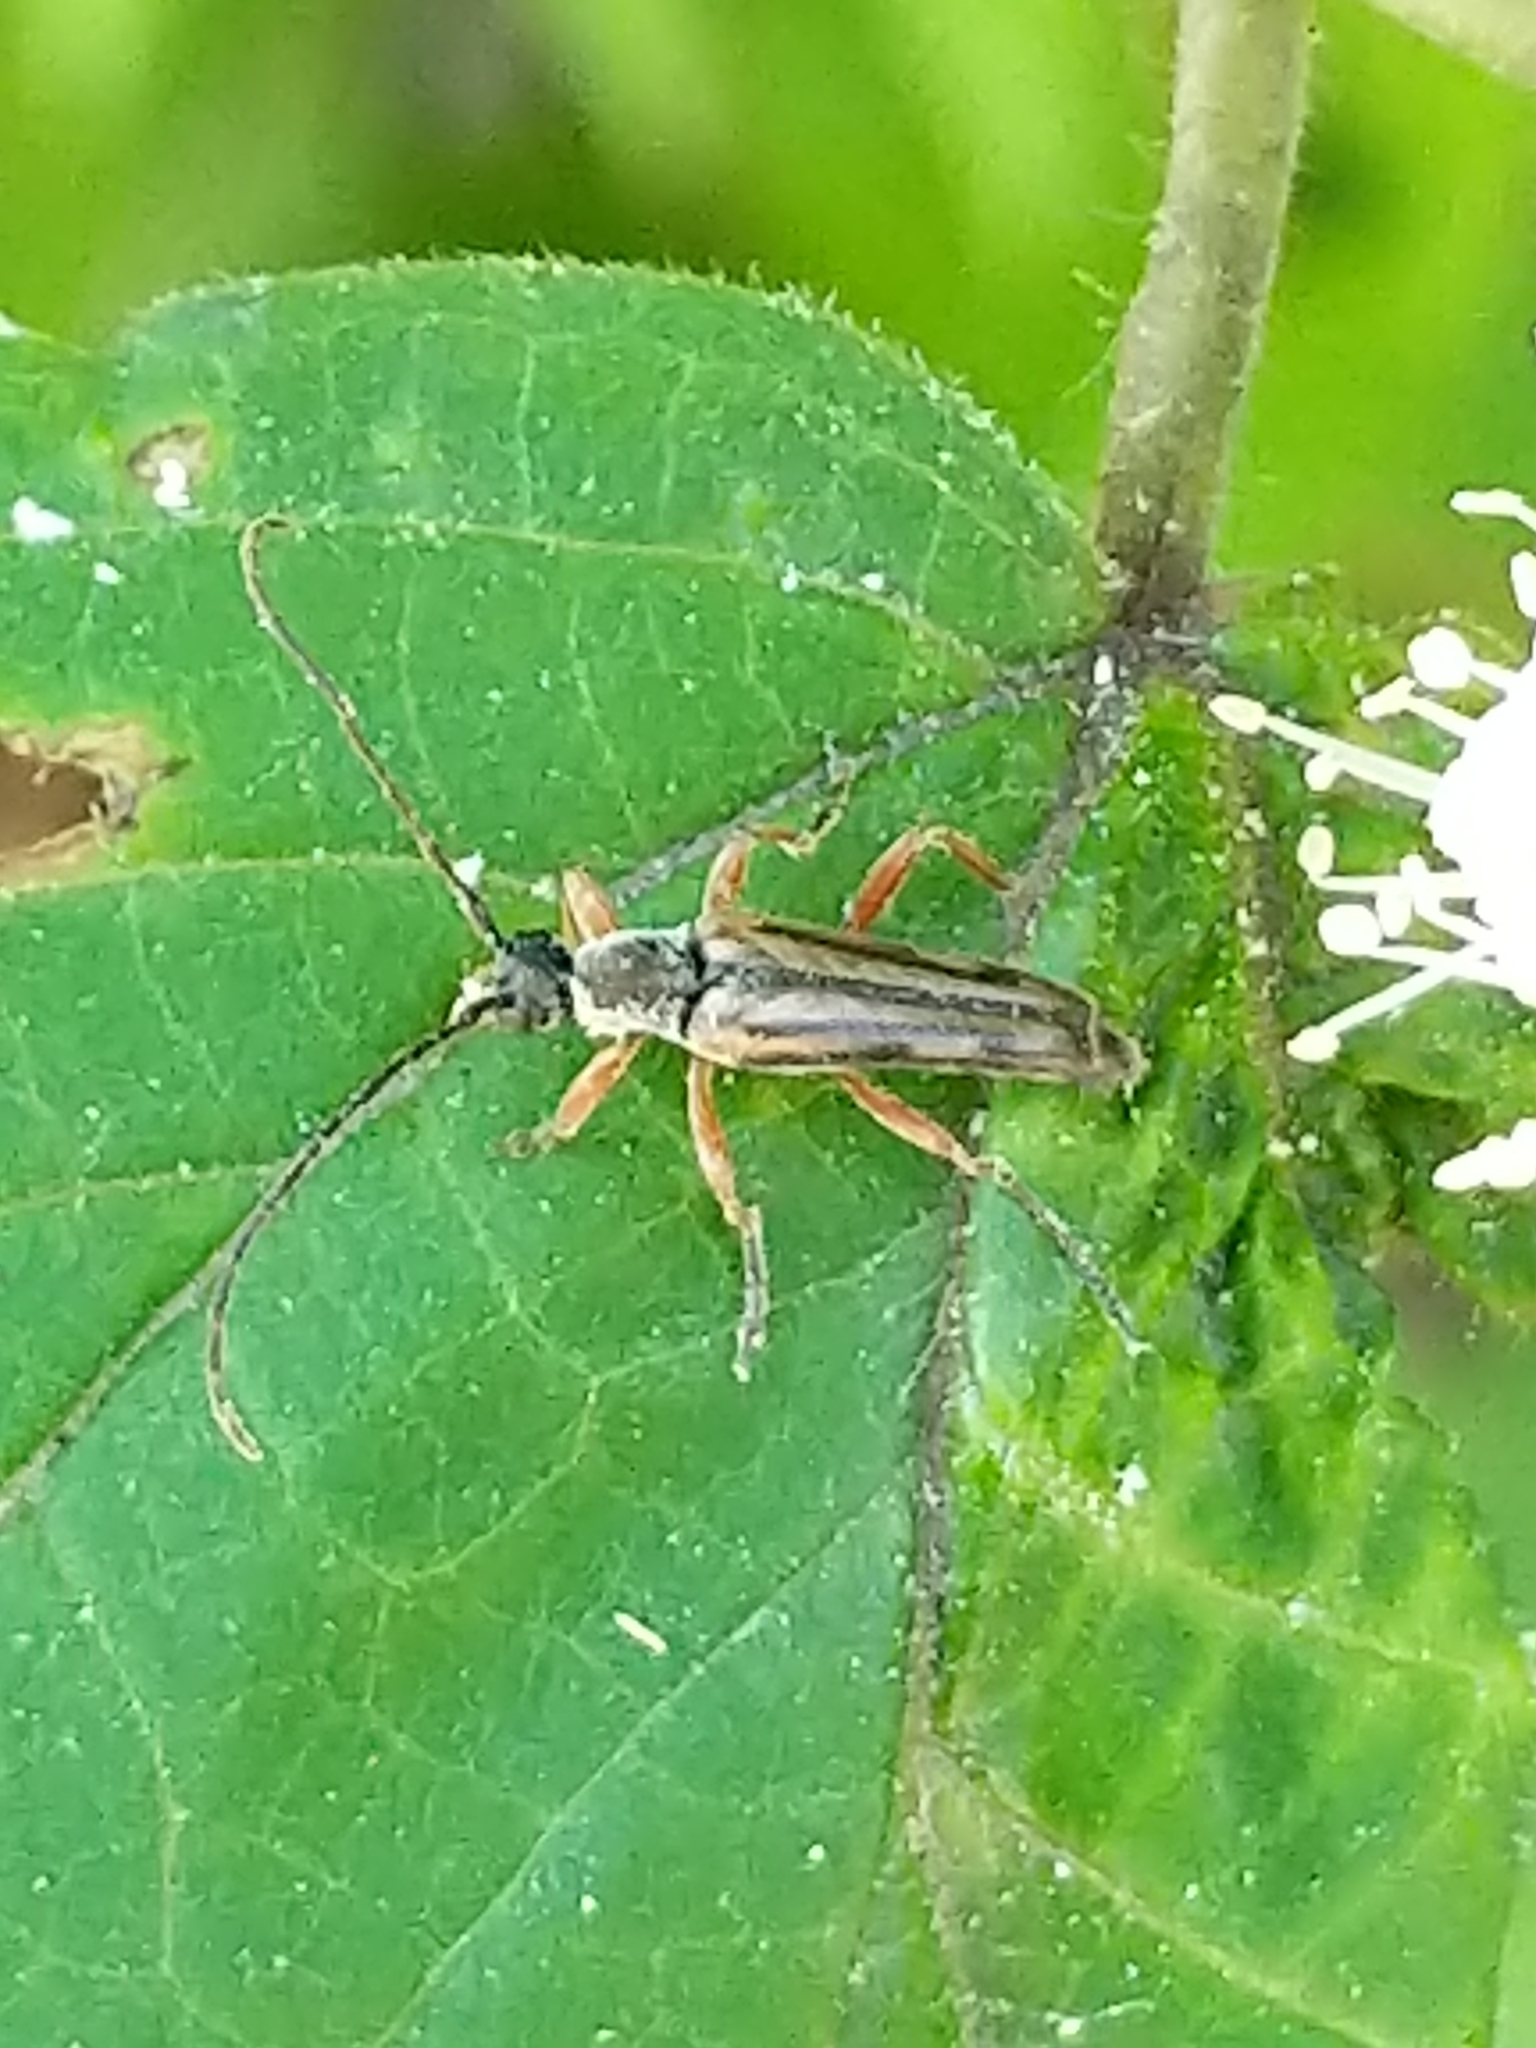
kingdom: Animalia
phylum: Arthropoda
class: Insecta
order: Coleoptera
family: Cerambycidae
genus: Analeptura
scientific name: Analeptura lineola
